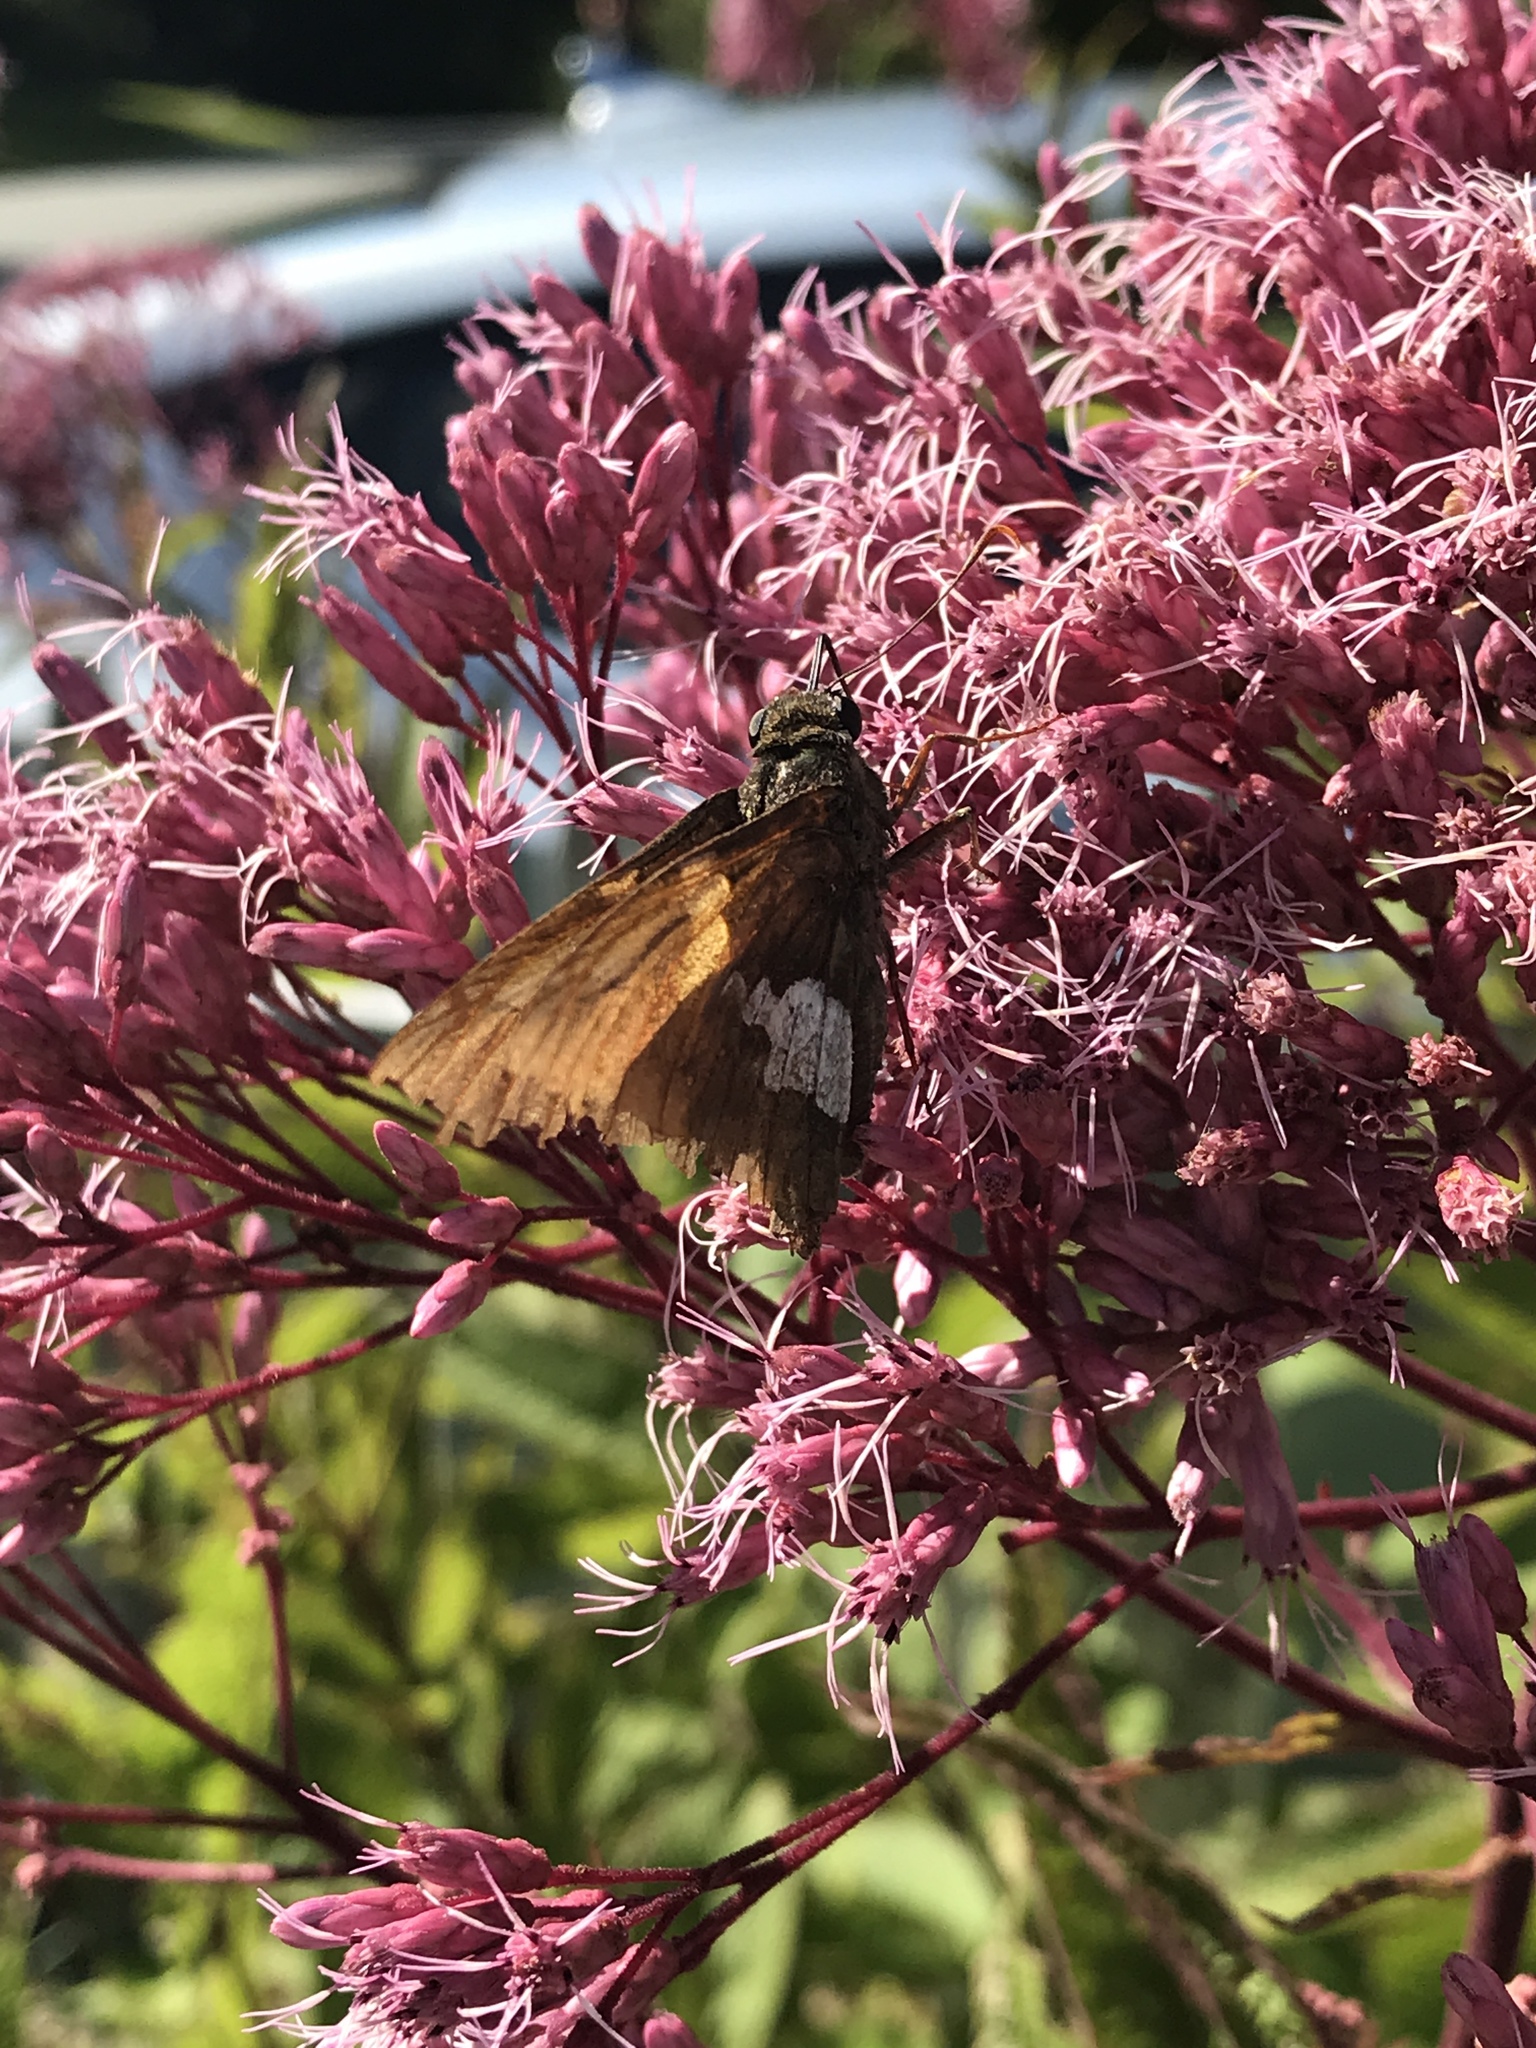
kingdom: Animalia
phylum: Arthropoda
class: Insecta
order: Lepidoptera
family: Hesperiidae
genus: Epargyreus
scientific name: Epargyreus clarus
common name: Silver-spotted skipper
